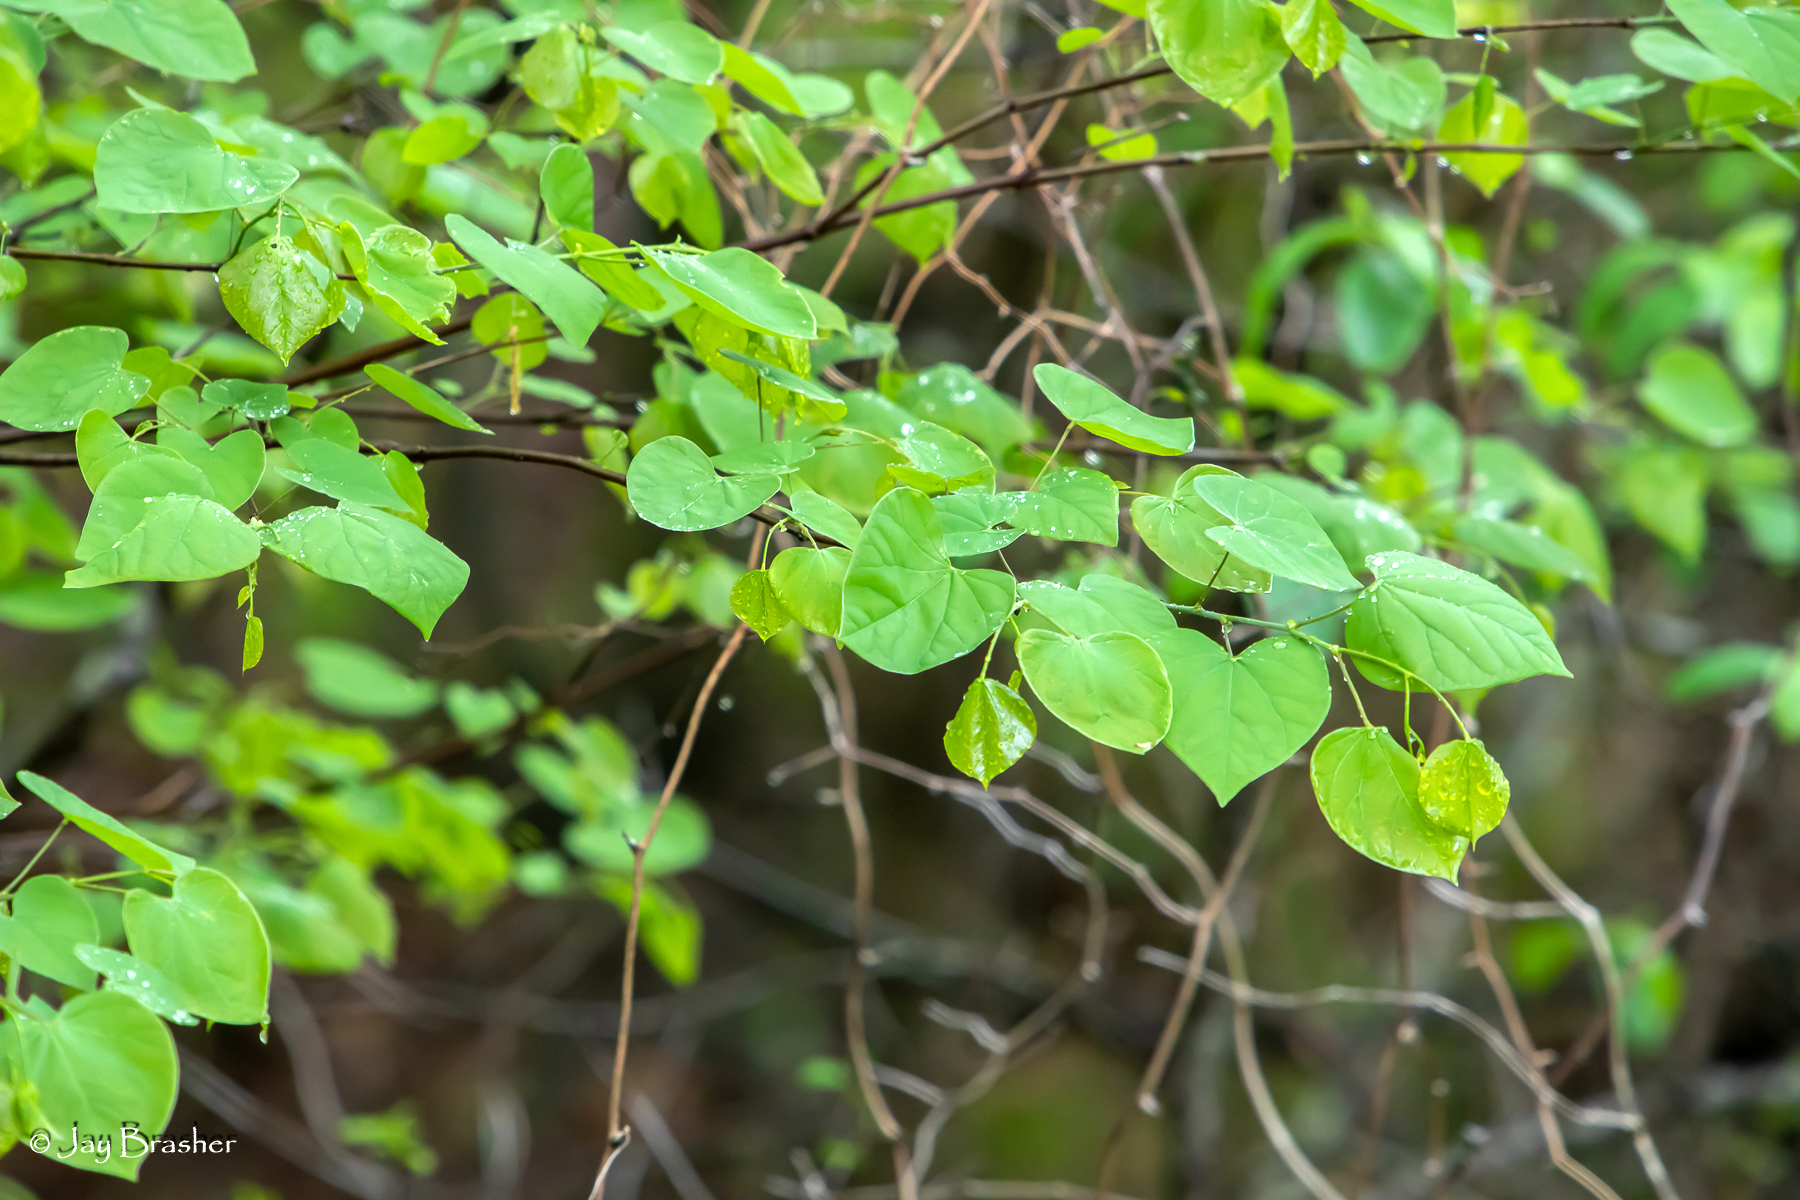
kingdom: Plantae
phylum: Tracheophyta
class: Magnoliopsida
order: Fabales
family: Fabaceae
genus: Cercis
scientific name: Cercis canadensis
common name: Eastern redbud
